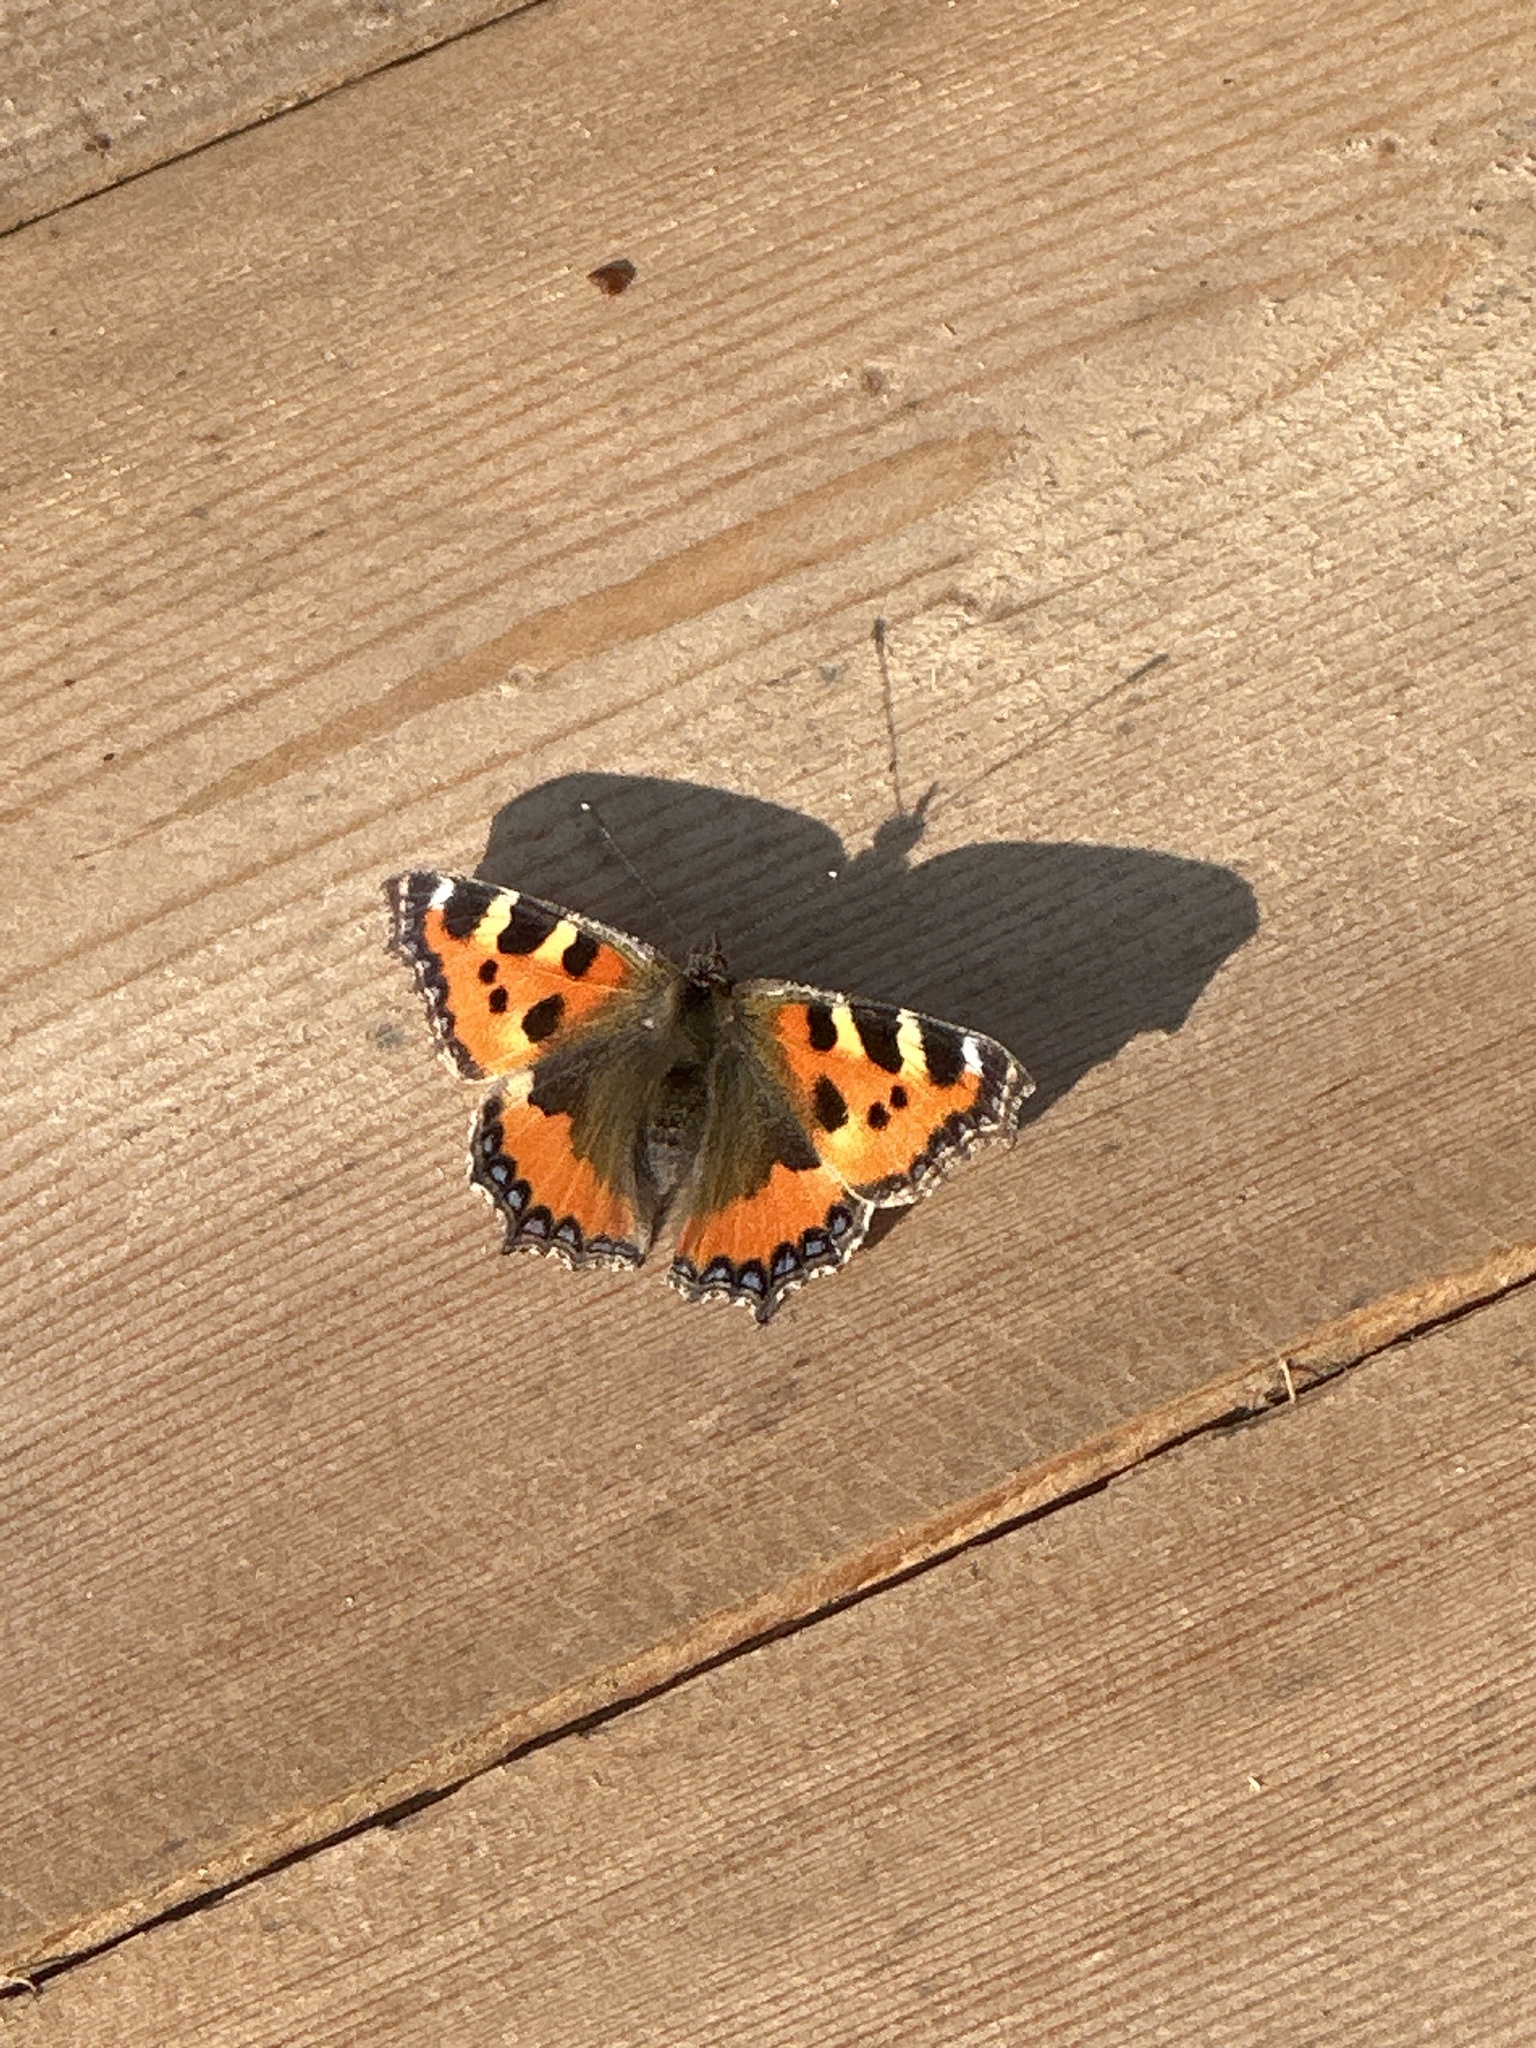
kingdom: Animalia
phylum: Arthropoda
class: Insecta
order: Lepidoptera
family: Nymphalidae
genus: Aglais
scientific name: Aglais urticae
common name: Small tortoiseshell
